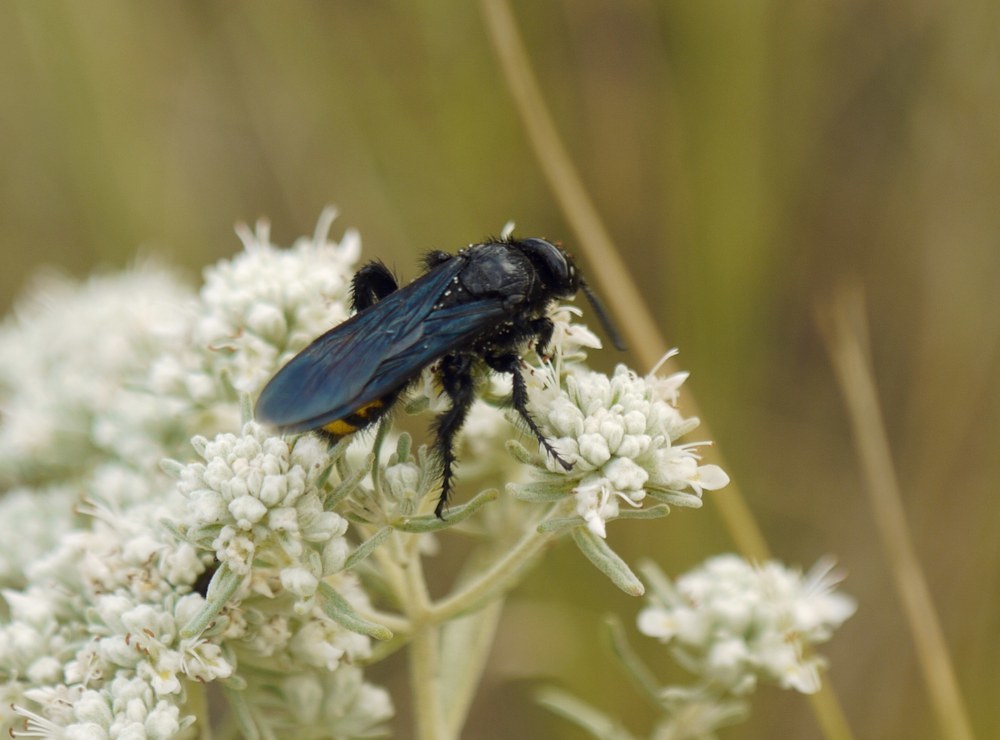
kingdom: Animalia
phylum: Arthropoda
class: Insecta
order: Hymenoptera
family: Scoliidae
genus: Scolia
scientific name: Scolia hirta
